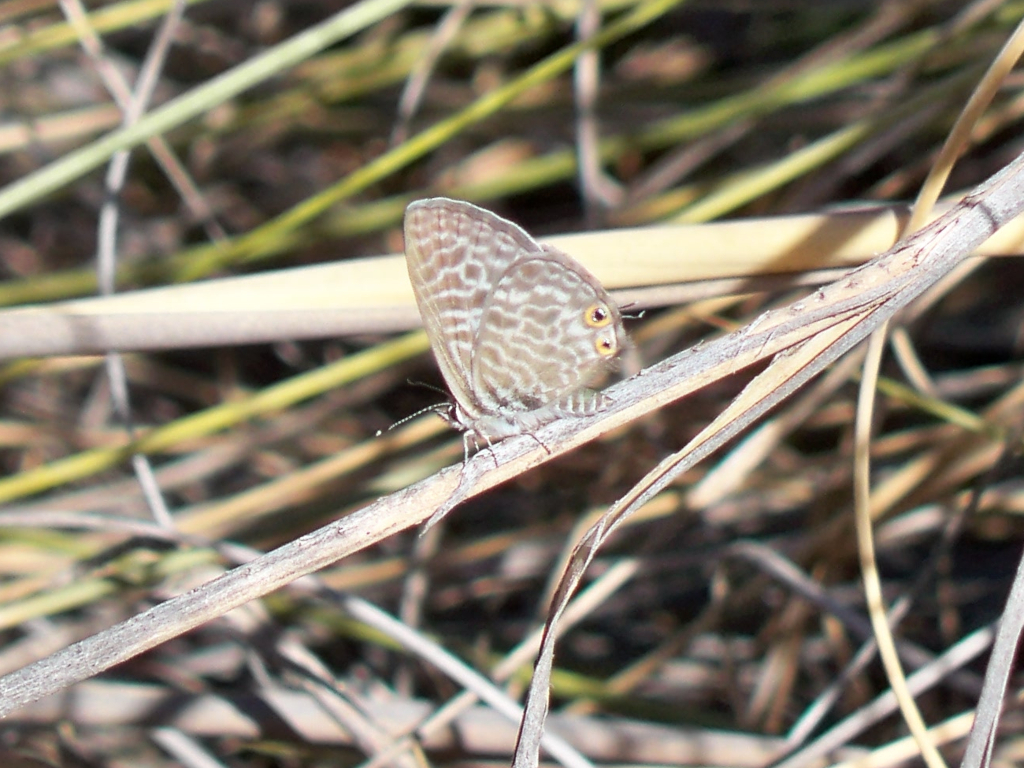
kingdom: Animalia
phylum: Arthropoda
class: Insecta
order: Lepidoptera
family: Lycaenidae
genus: Leptotes
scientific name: Leptotes pirithous
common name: Lang's short-tailed blue
